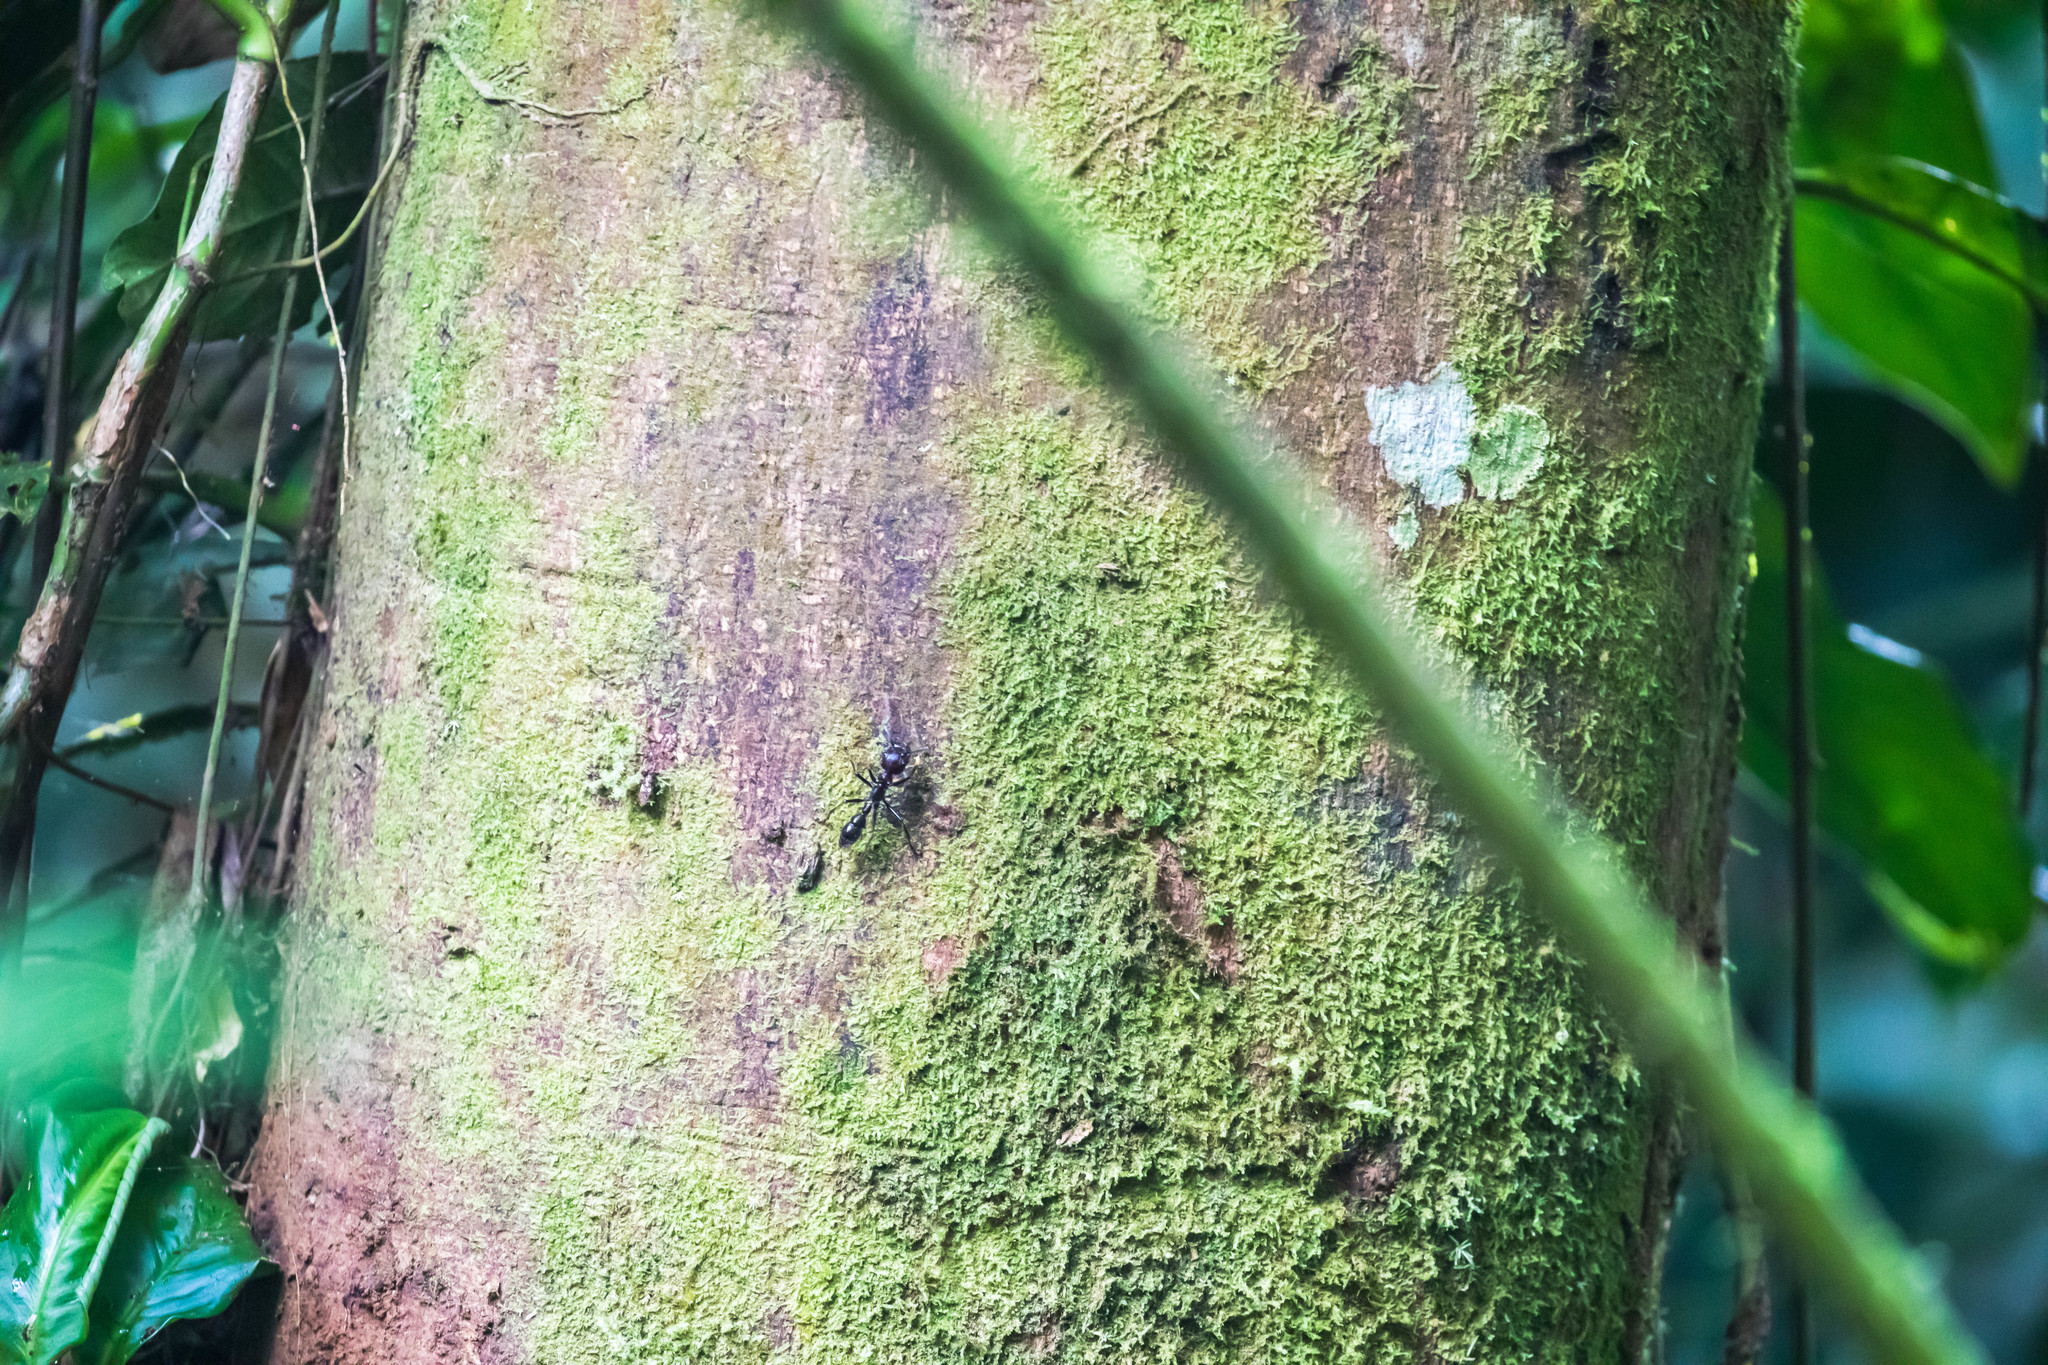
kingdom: Animalia
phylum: Arthropoda
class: Insecta
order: Hymenoptera
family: Formicidae
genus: Paraponera
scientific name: Paraponera clavata
